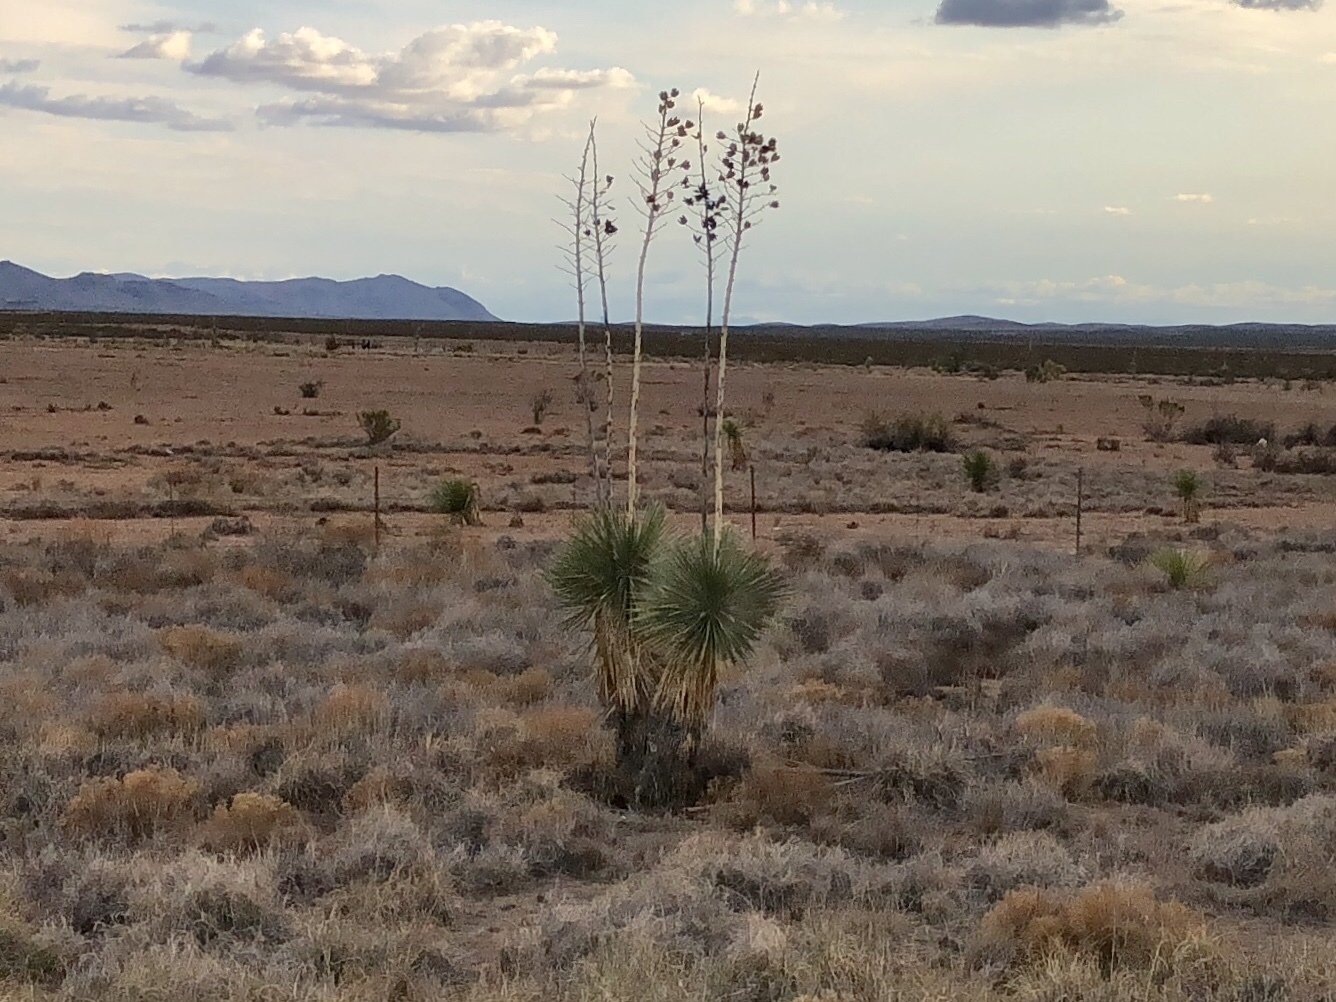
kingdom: Plantae
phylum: Tracheophyta
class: Liliopsida
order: Asparagales
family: Asparagaceae
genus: Yucca
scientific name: Yucca elata
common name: Palmella
